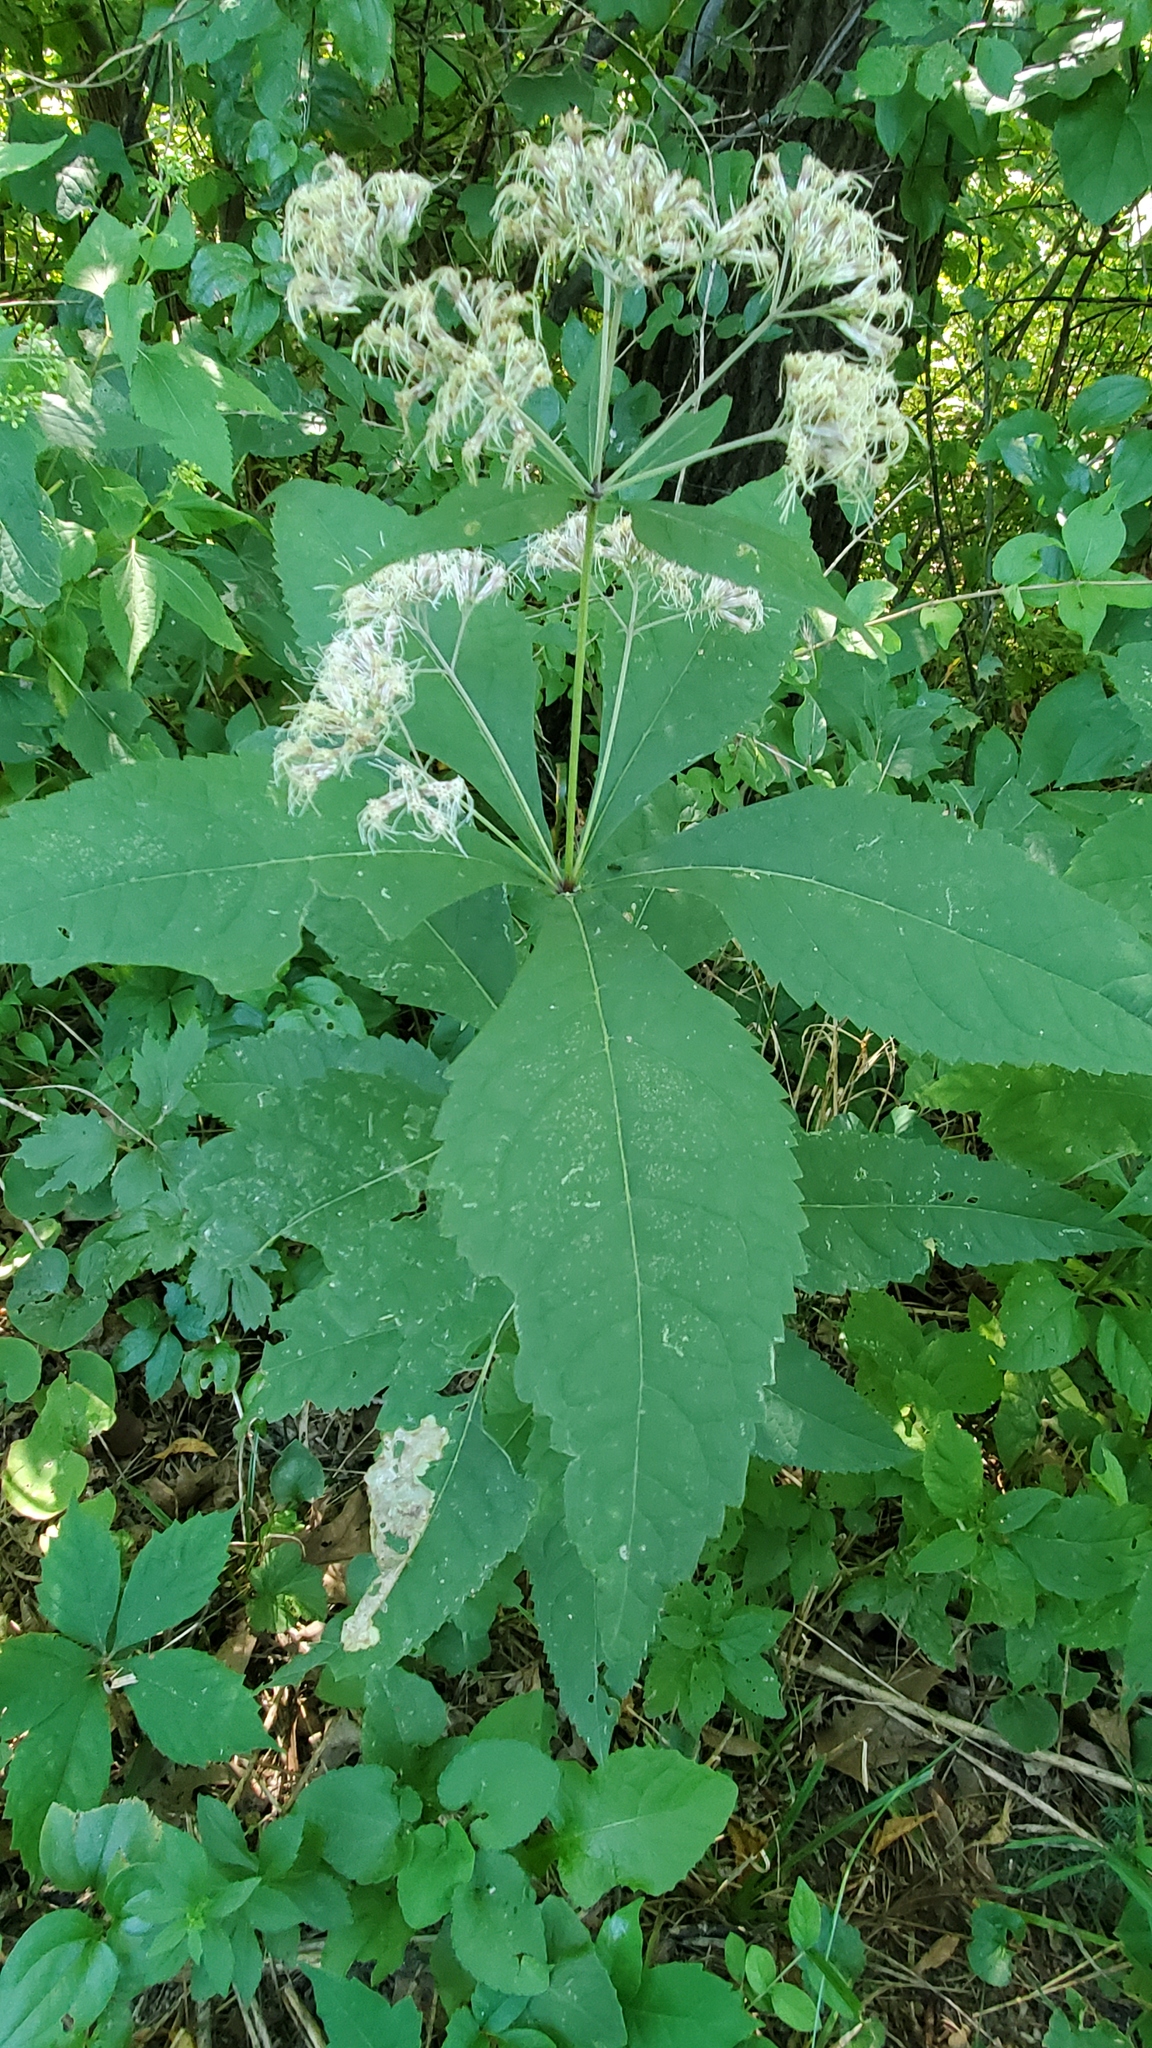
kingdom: Plantae
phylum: Tracheophyta
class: Magnoliopsida
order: Asterales
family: Asteraceae
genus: Eutrochium
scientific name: Eutrochium purpureum
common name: Gravelroot
